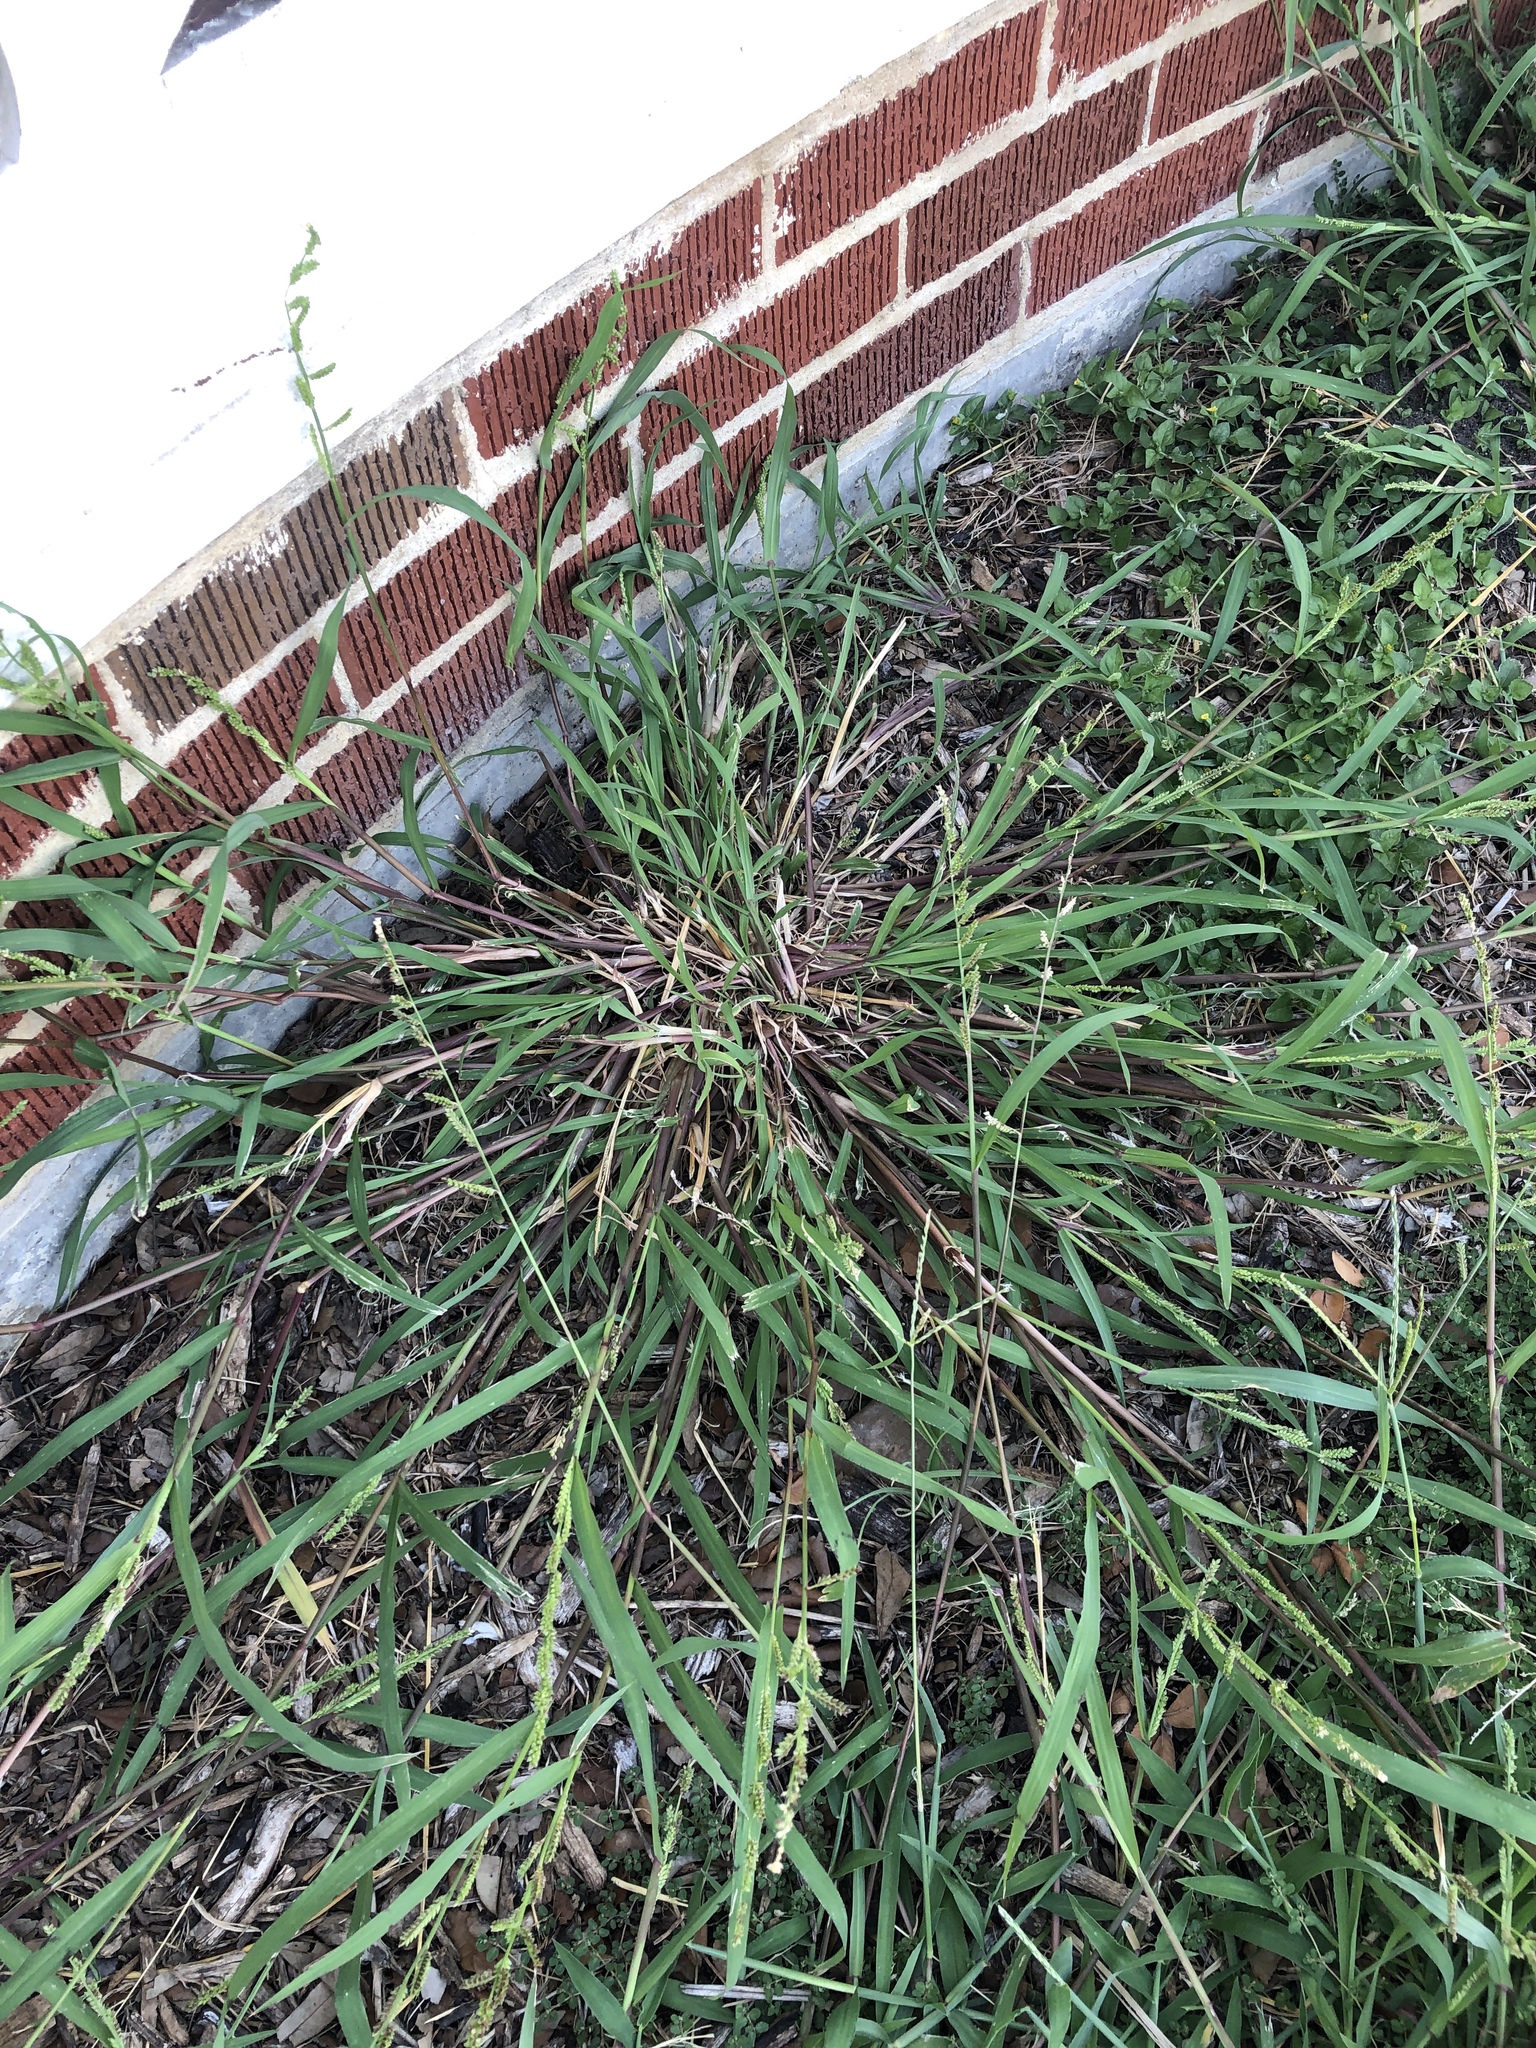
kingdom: Plantae
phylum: Tracheophyta
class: Liliopsida
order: Poales
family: Poaceae
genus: Echinochloa
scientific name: Echinochloa colonum
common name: Jungle rice
